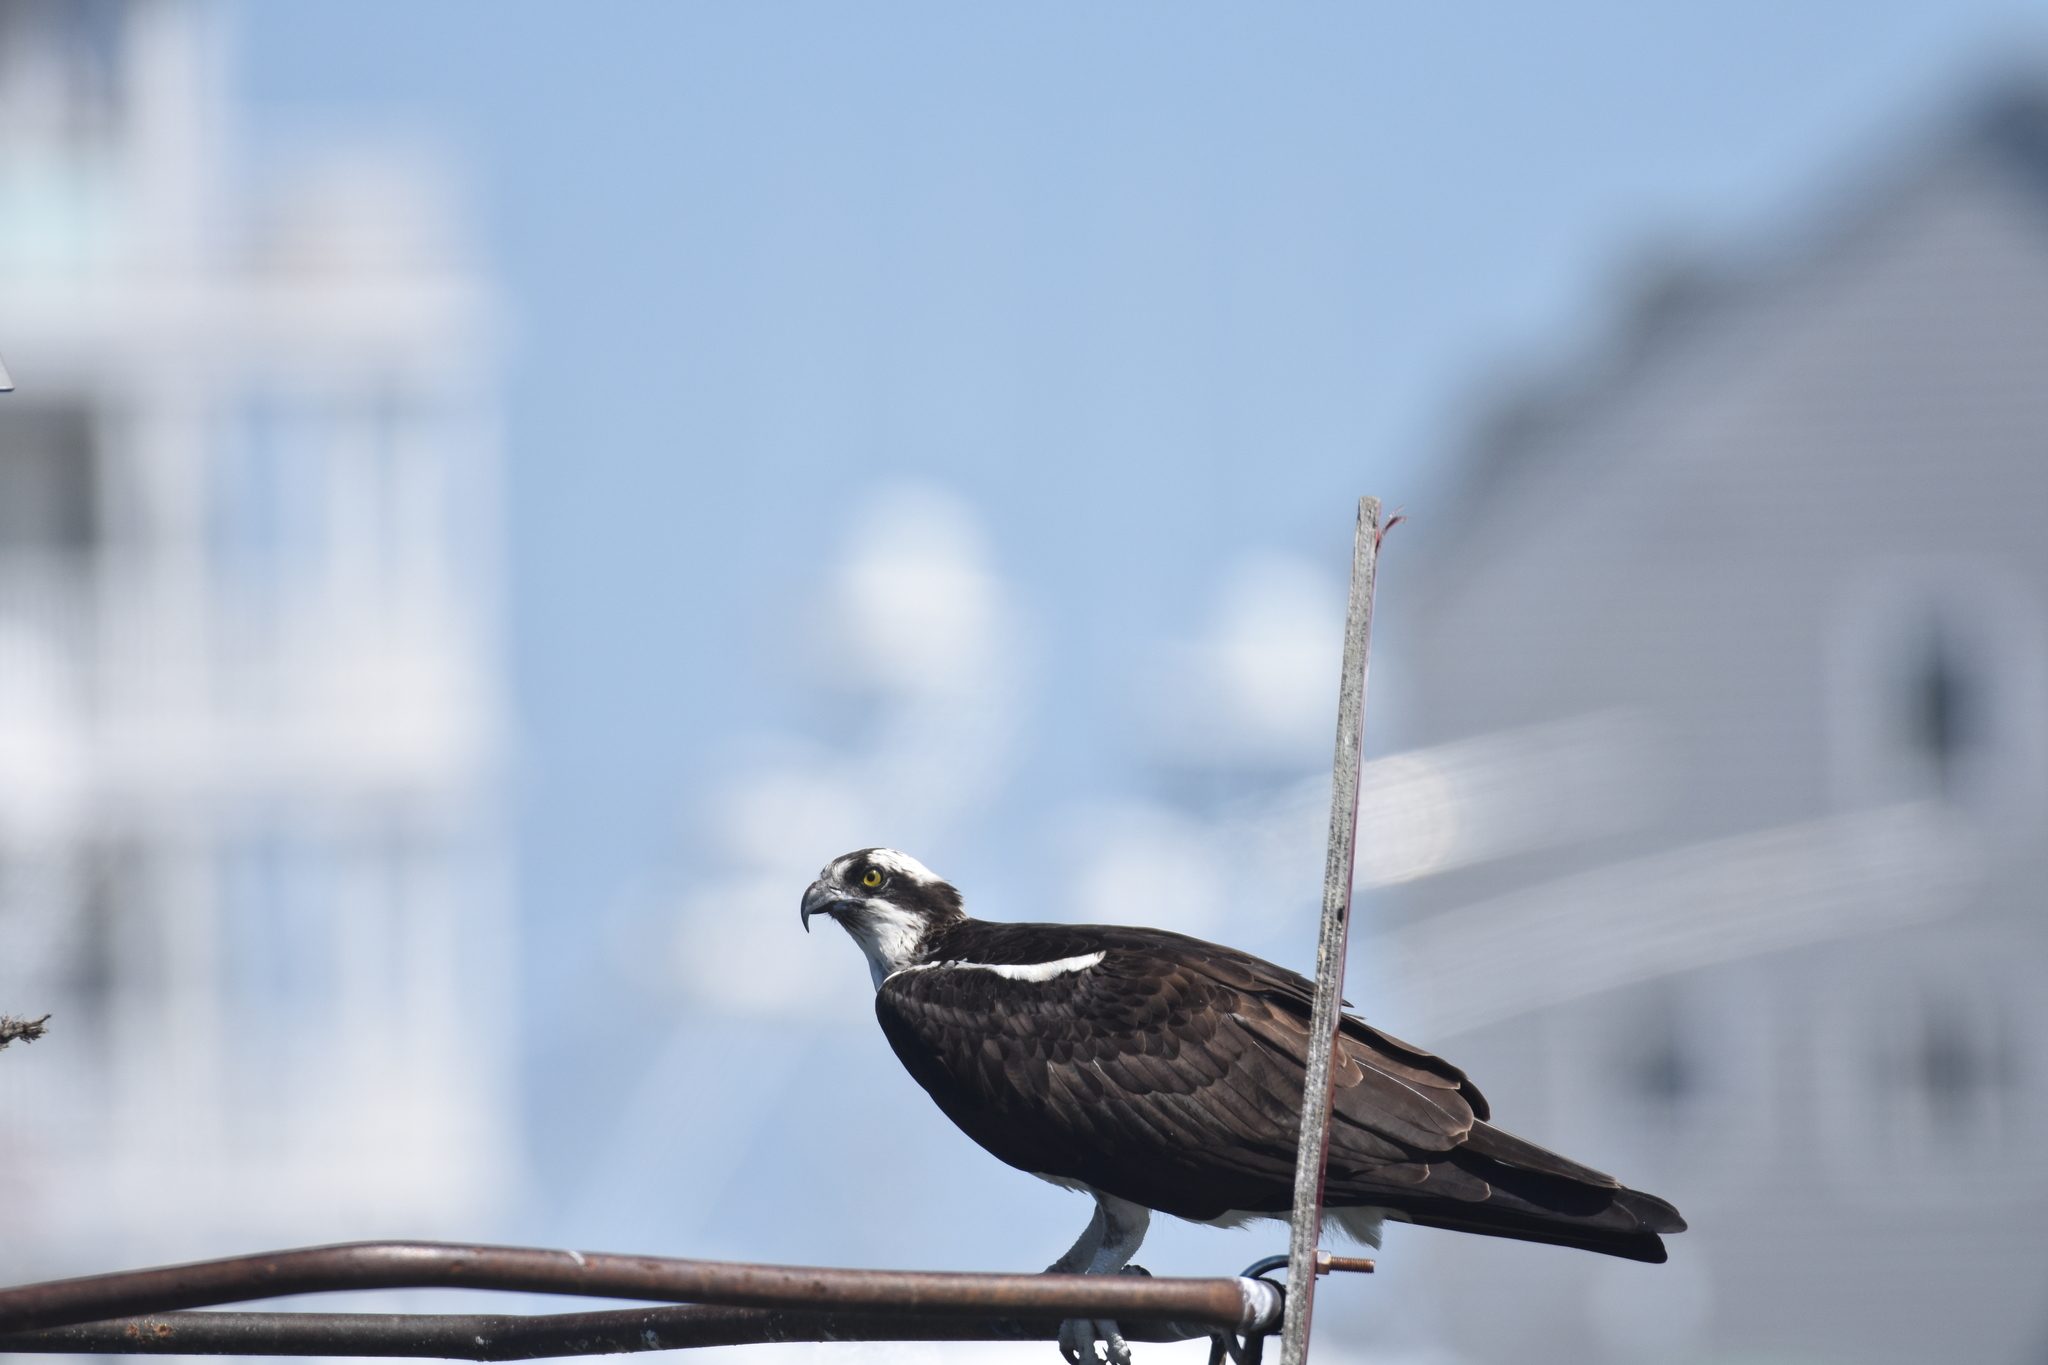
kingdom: Animalia
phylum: Chordata
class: Aves
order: Accipitriformes
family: Pandionidae
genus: Pandion
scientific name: Pandion haliaetus
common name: Osprey
